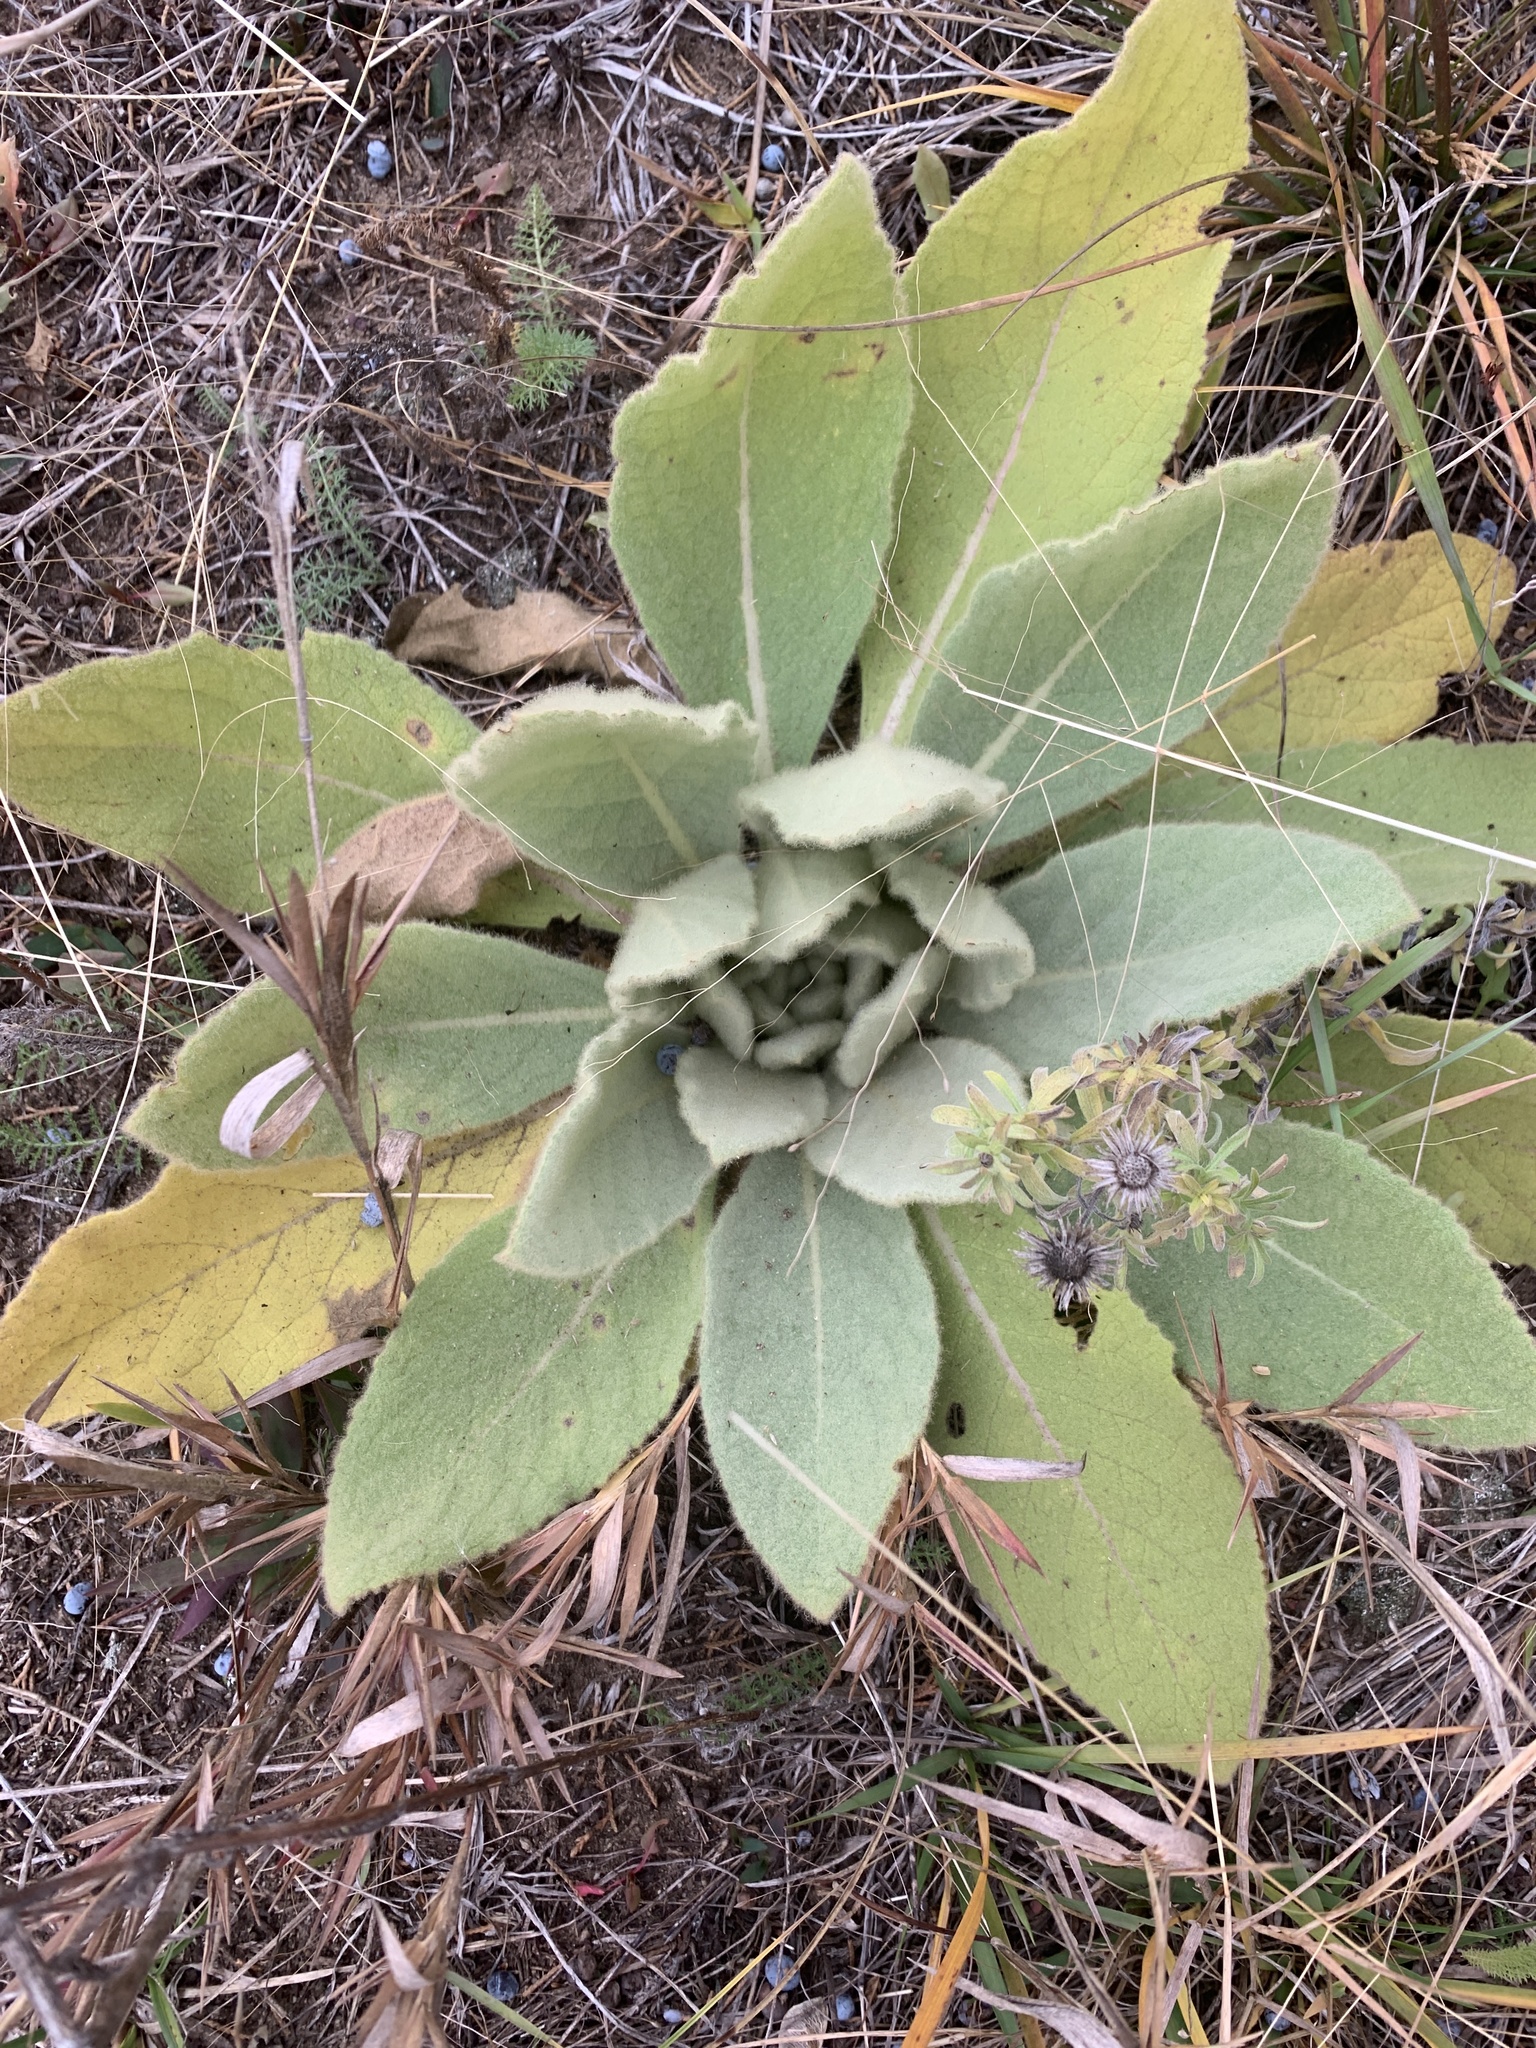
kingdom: Plantae
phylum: Tracheophyta
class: Magnoliopsida
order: Lamiales
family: Scrophulariaceae
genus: Verbascum
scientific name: Verbascum thapsus
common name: Common mullein
